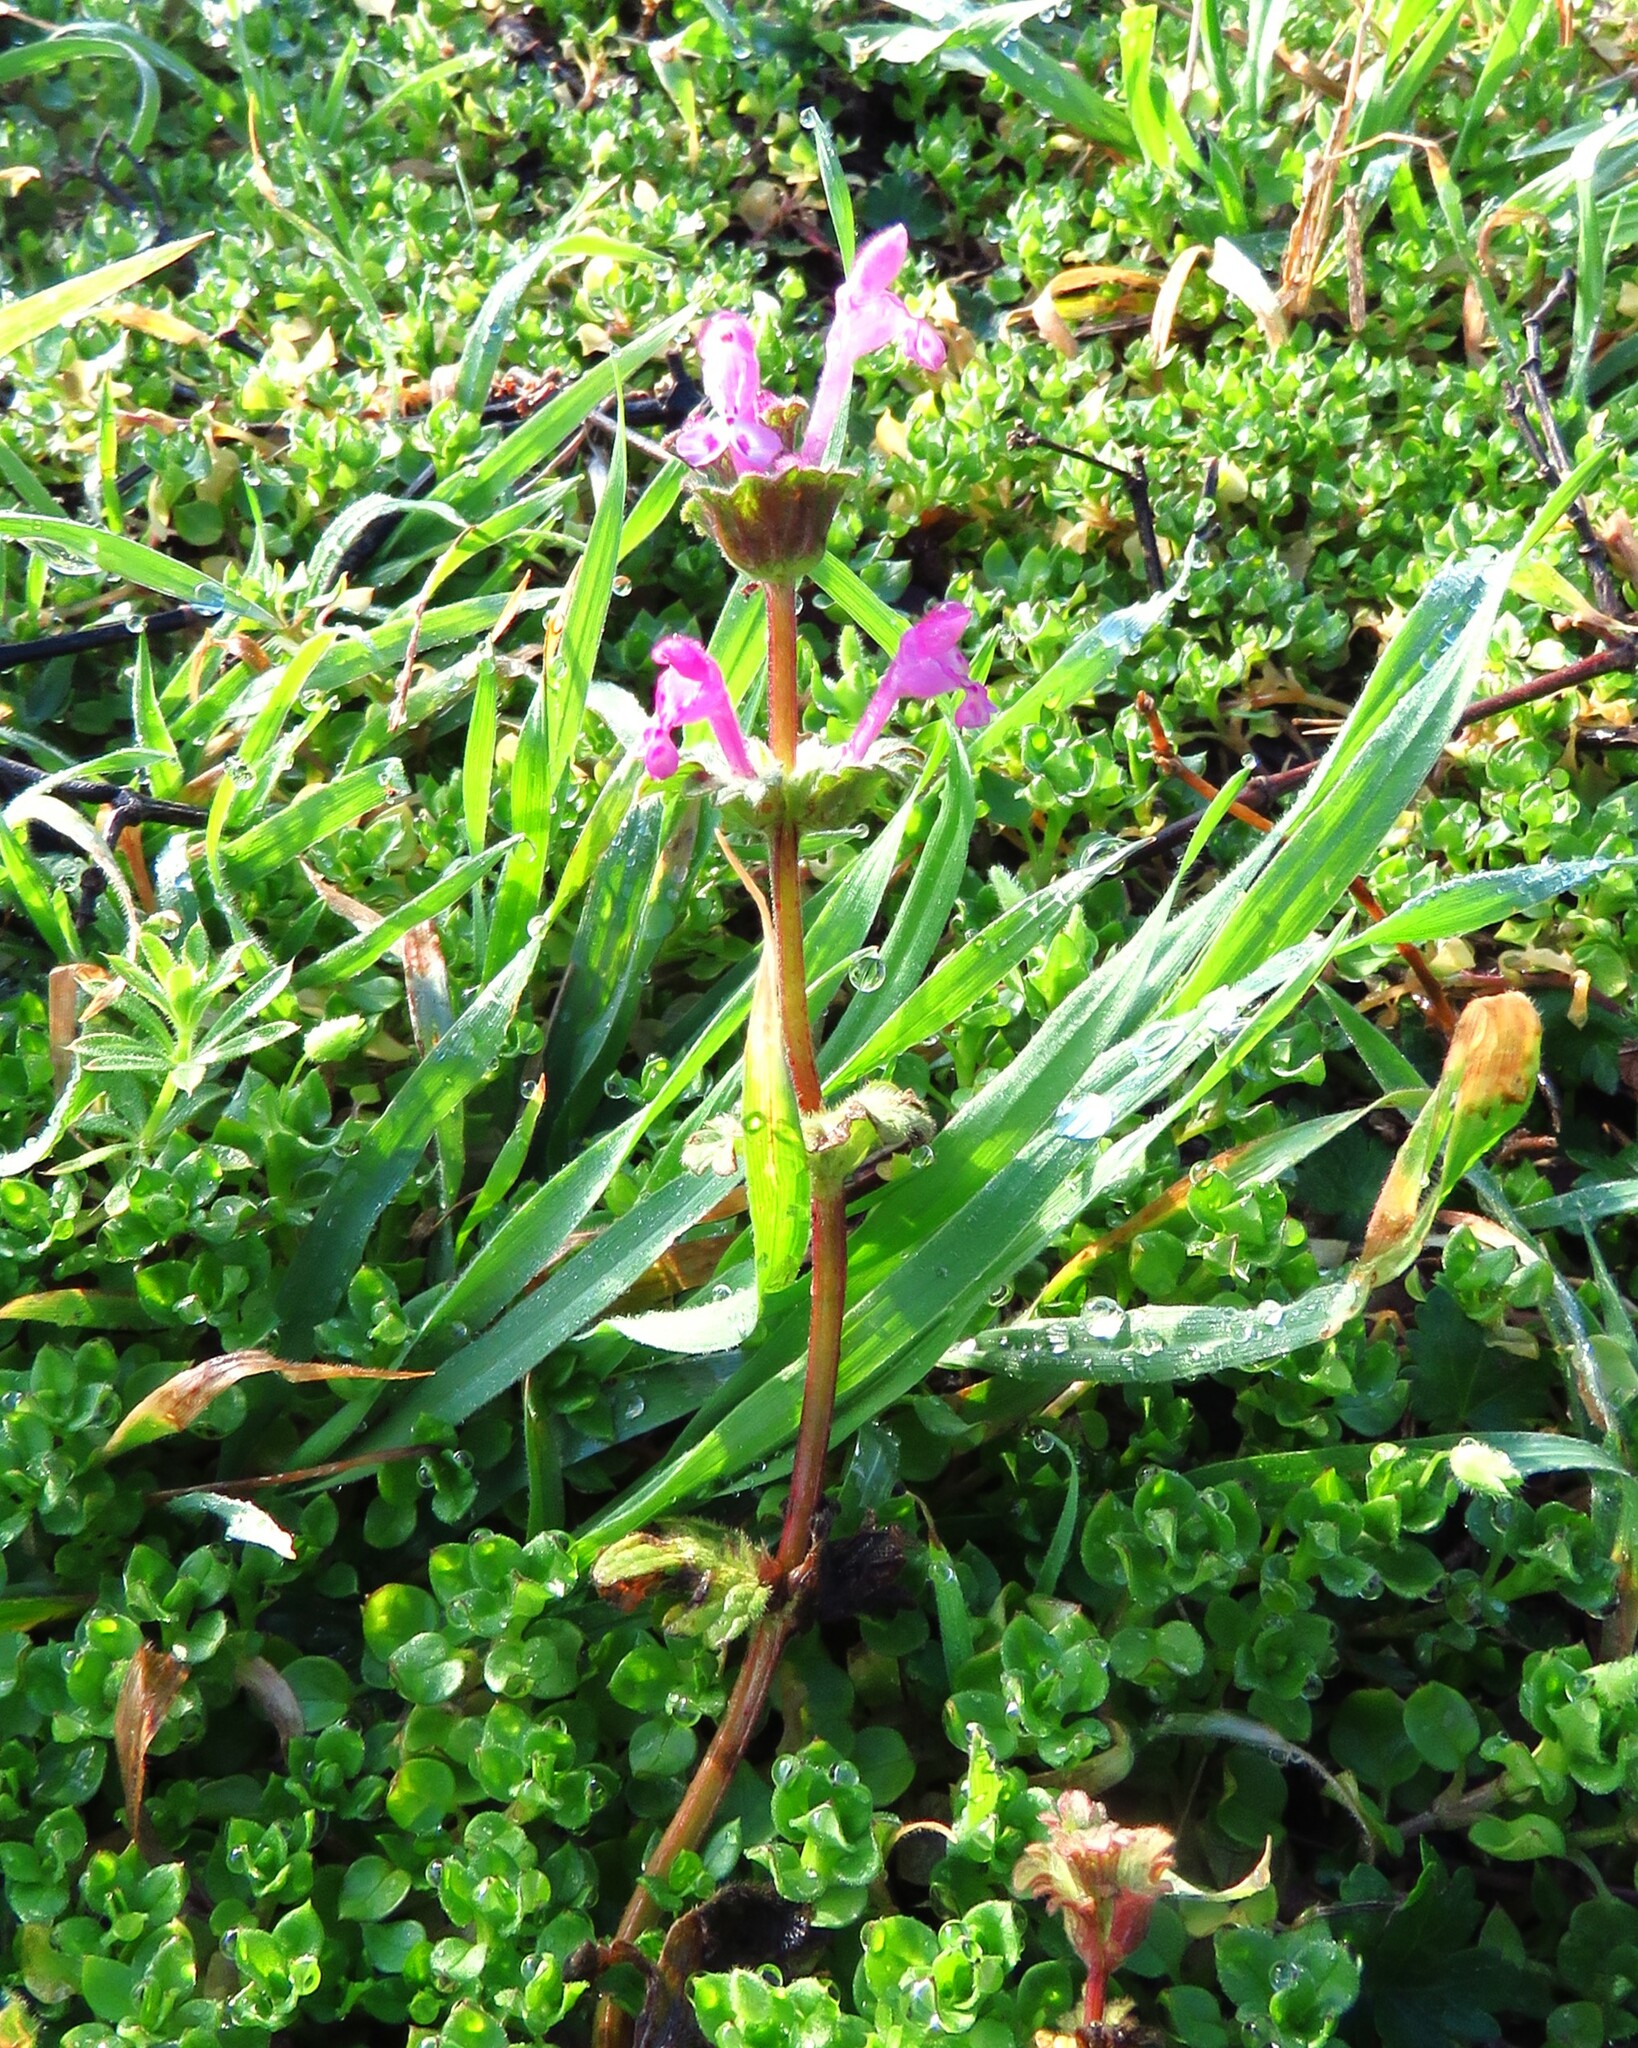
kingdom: Plantae
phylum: Tracheophyta
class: Magnoliopsida
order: Lamiales
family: Lamiaceae
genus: Lamium
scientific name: Lamium amplexicaule
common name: Henbit dead-nettle
